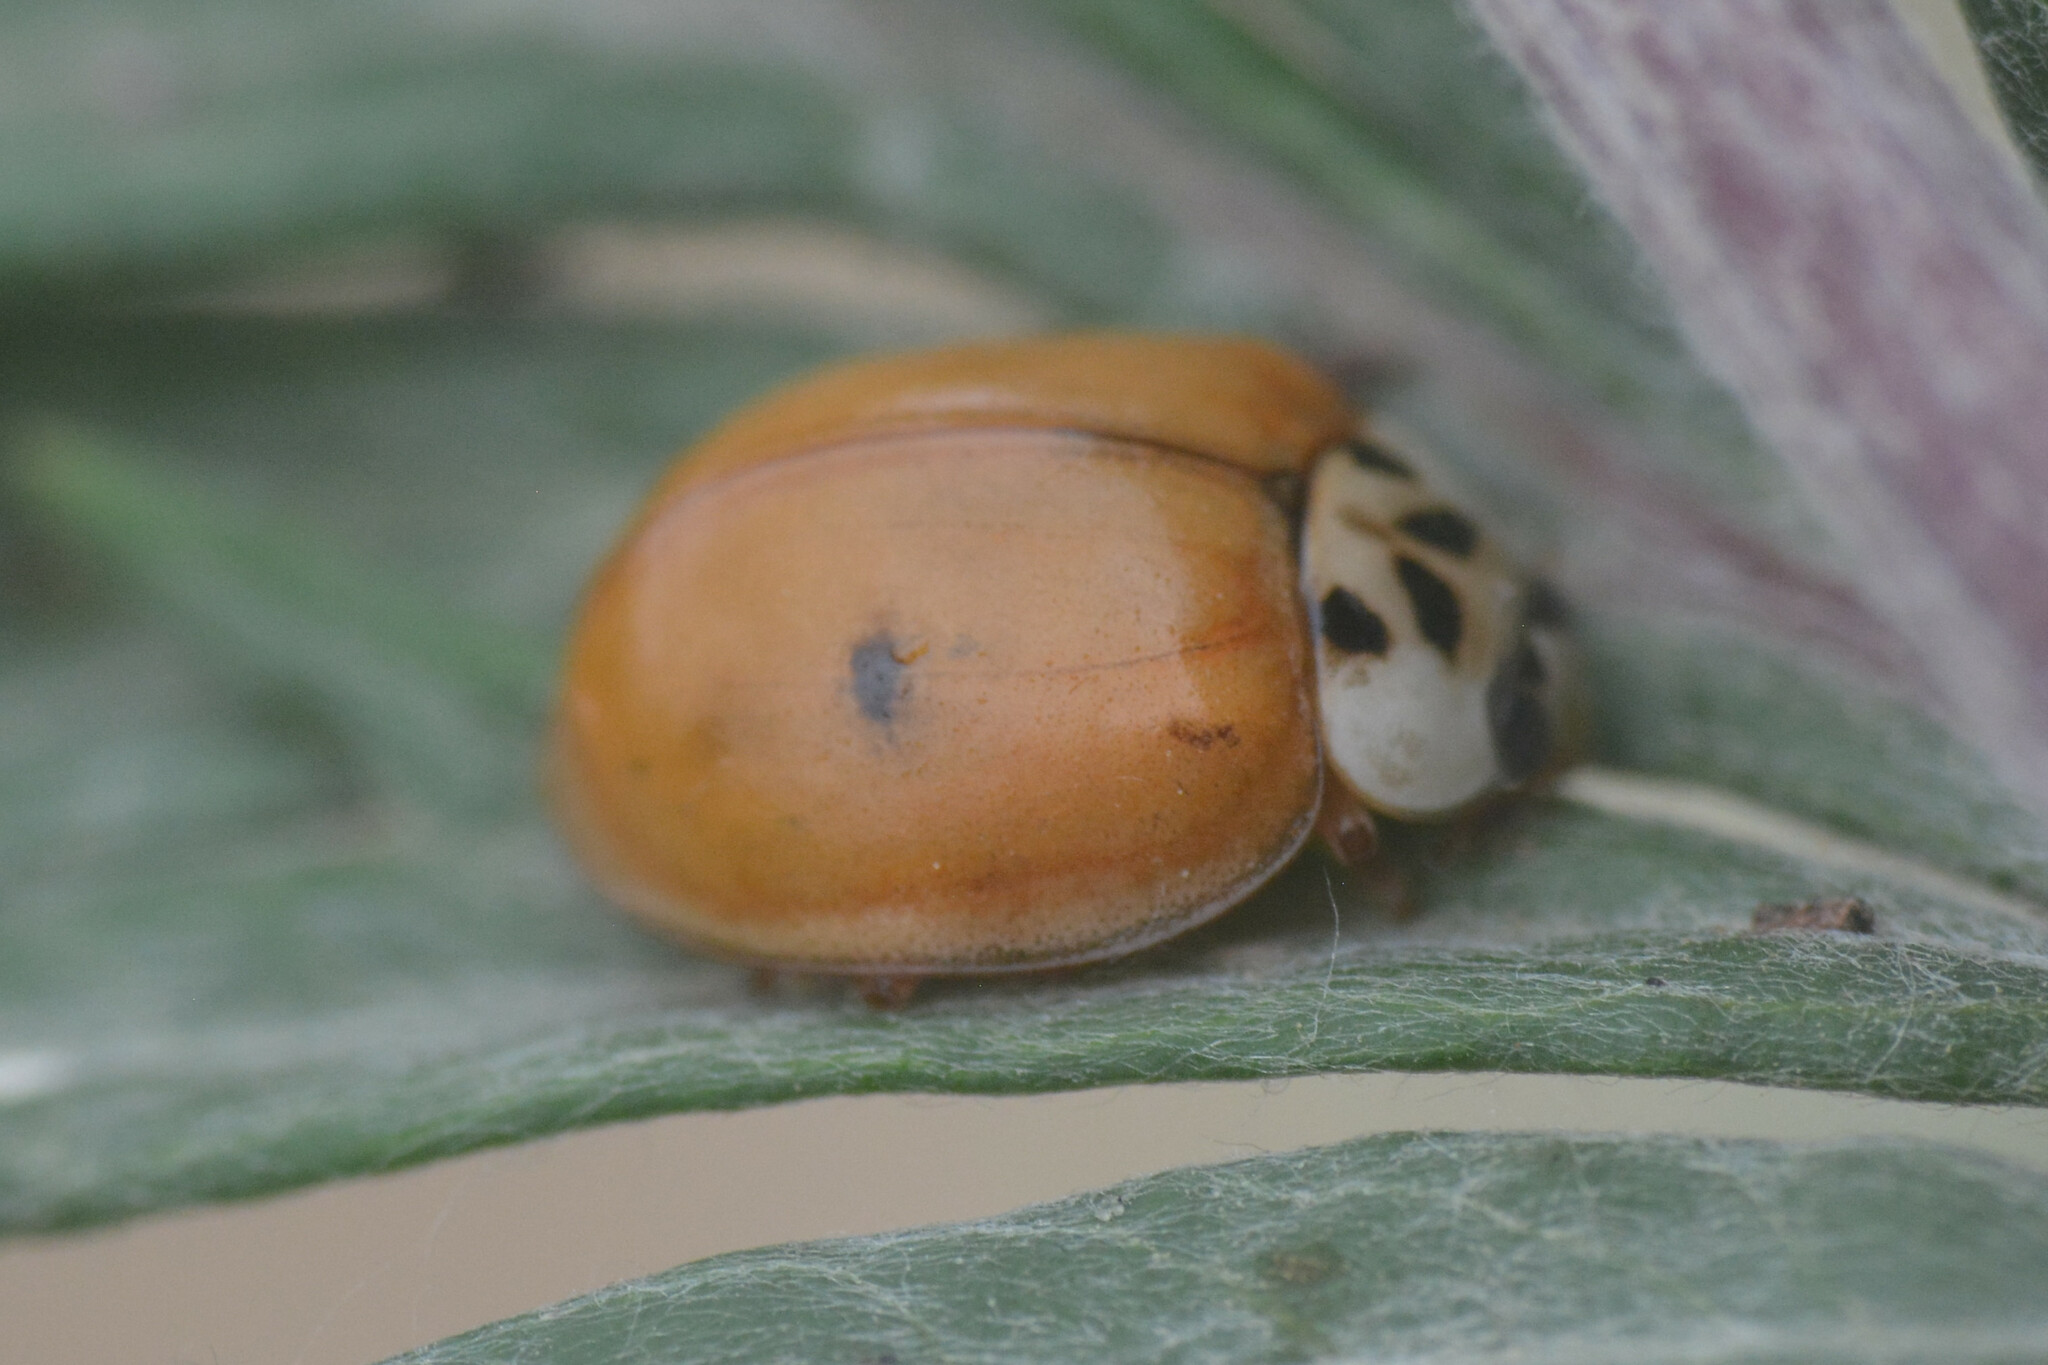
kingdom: Animalia
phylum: Arthropoda
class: Insecta
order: Coleoptera
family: Coccinellidae
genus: Harmonia
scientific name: Harmonia axyridis
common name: Harlequin ladybird
